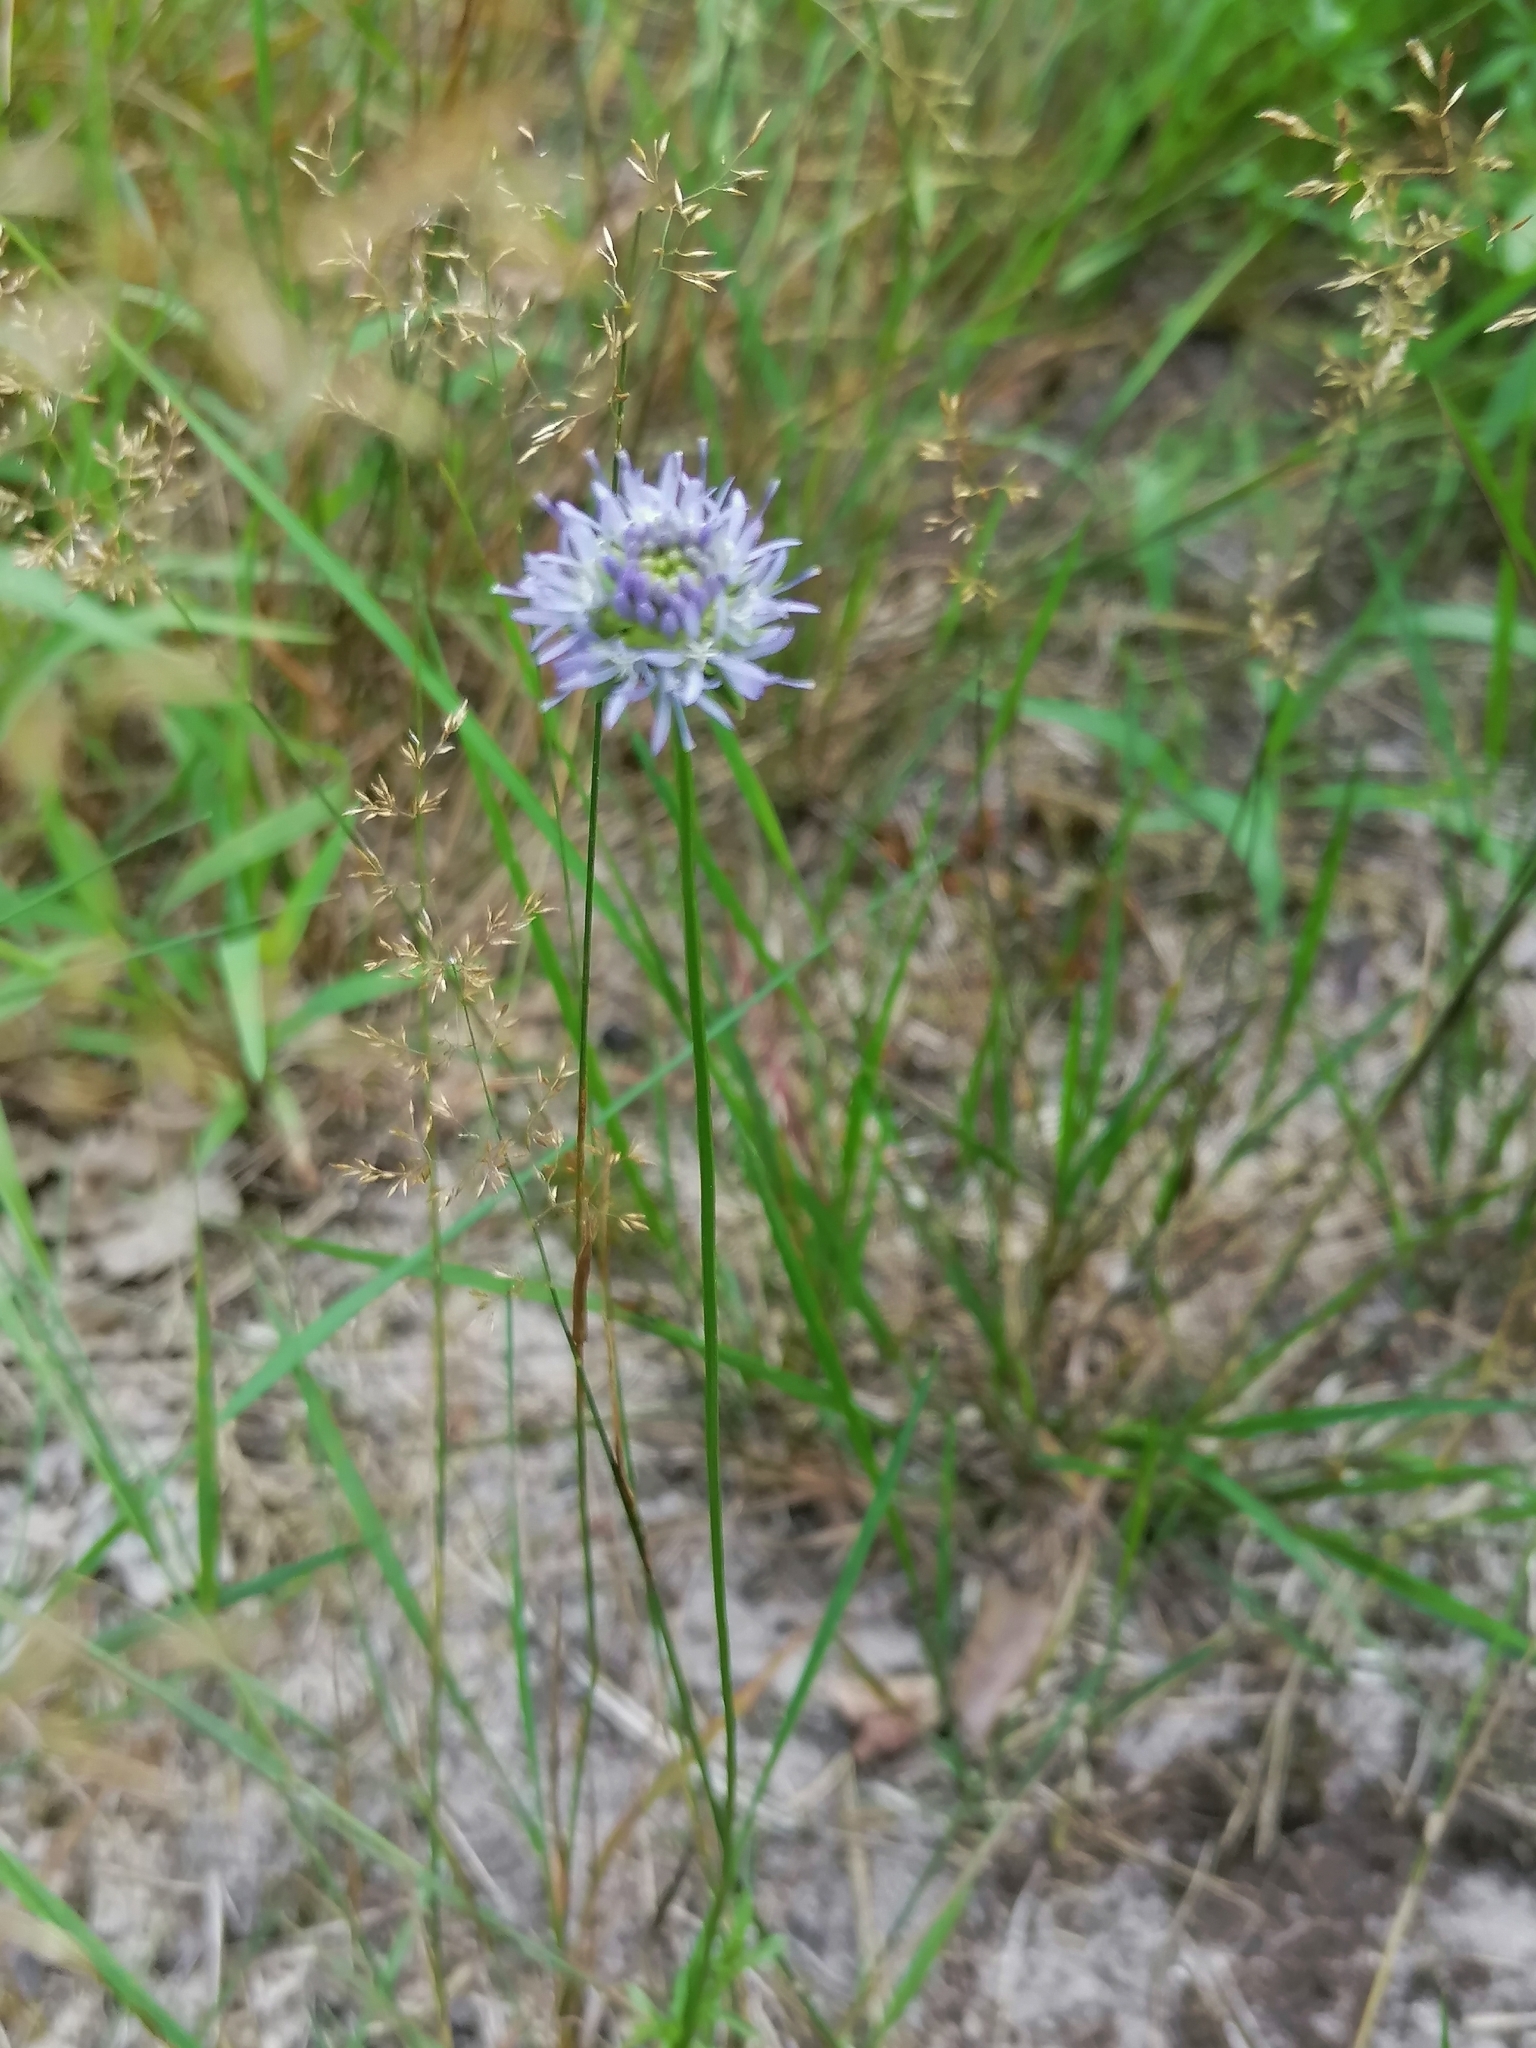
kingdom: Plantae
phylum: Tracheophyta
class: Magnoliopsida
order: Asterales
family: Campanulaceae
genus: Jasione
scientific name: Jasione montana
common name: Sheep's-bit
